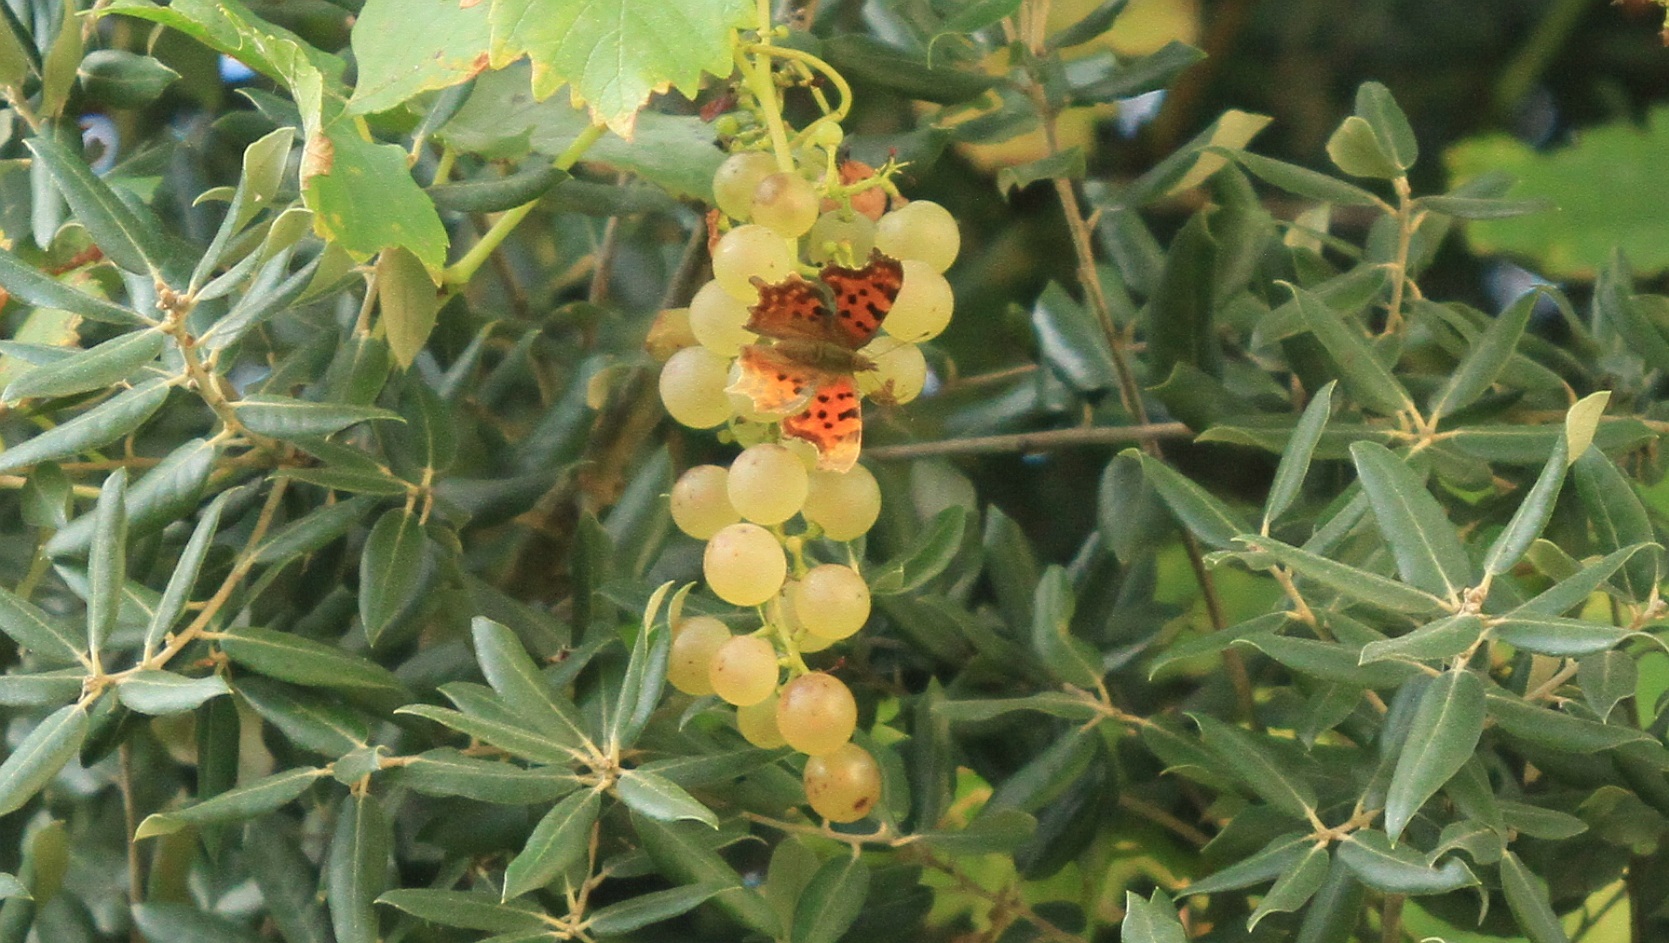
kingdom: Animalia
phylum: Arthropoda
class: Insecta
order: Lepidoptera
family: Nymphalidae
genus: Polygonia
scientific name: Polygonia c-album
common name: Comma
